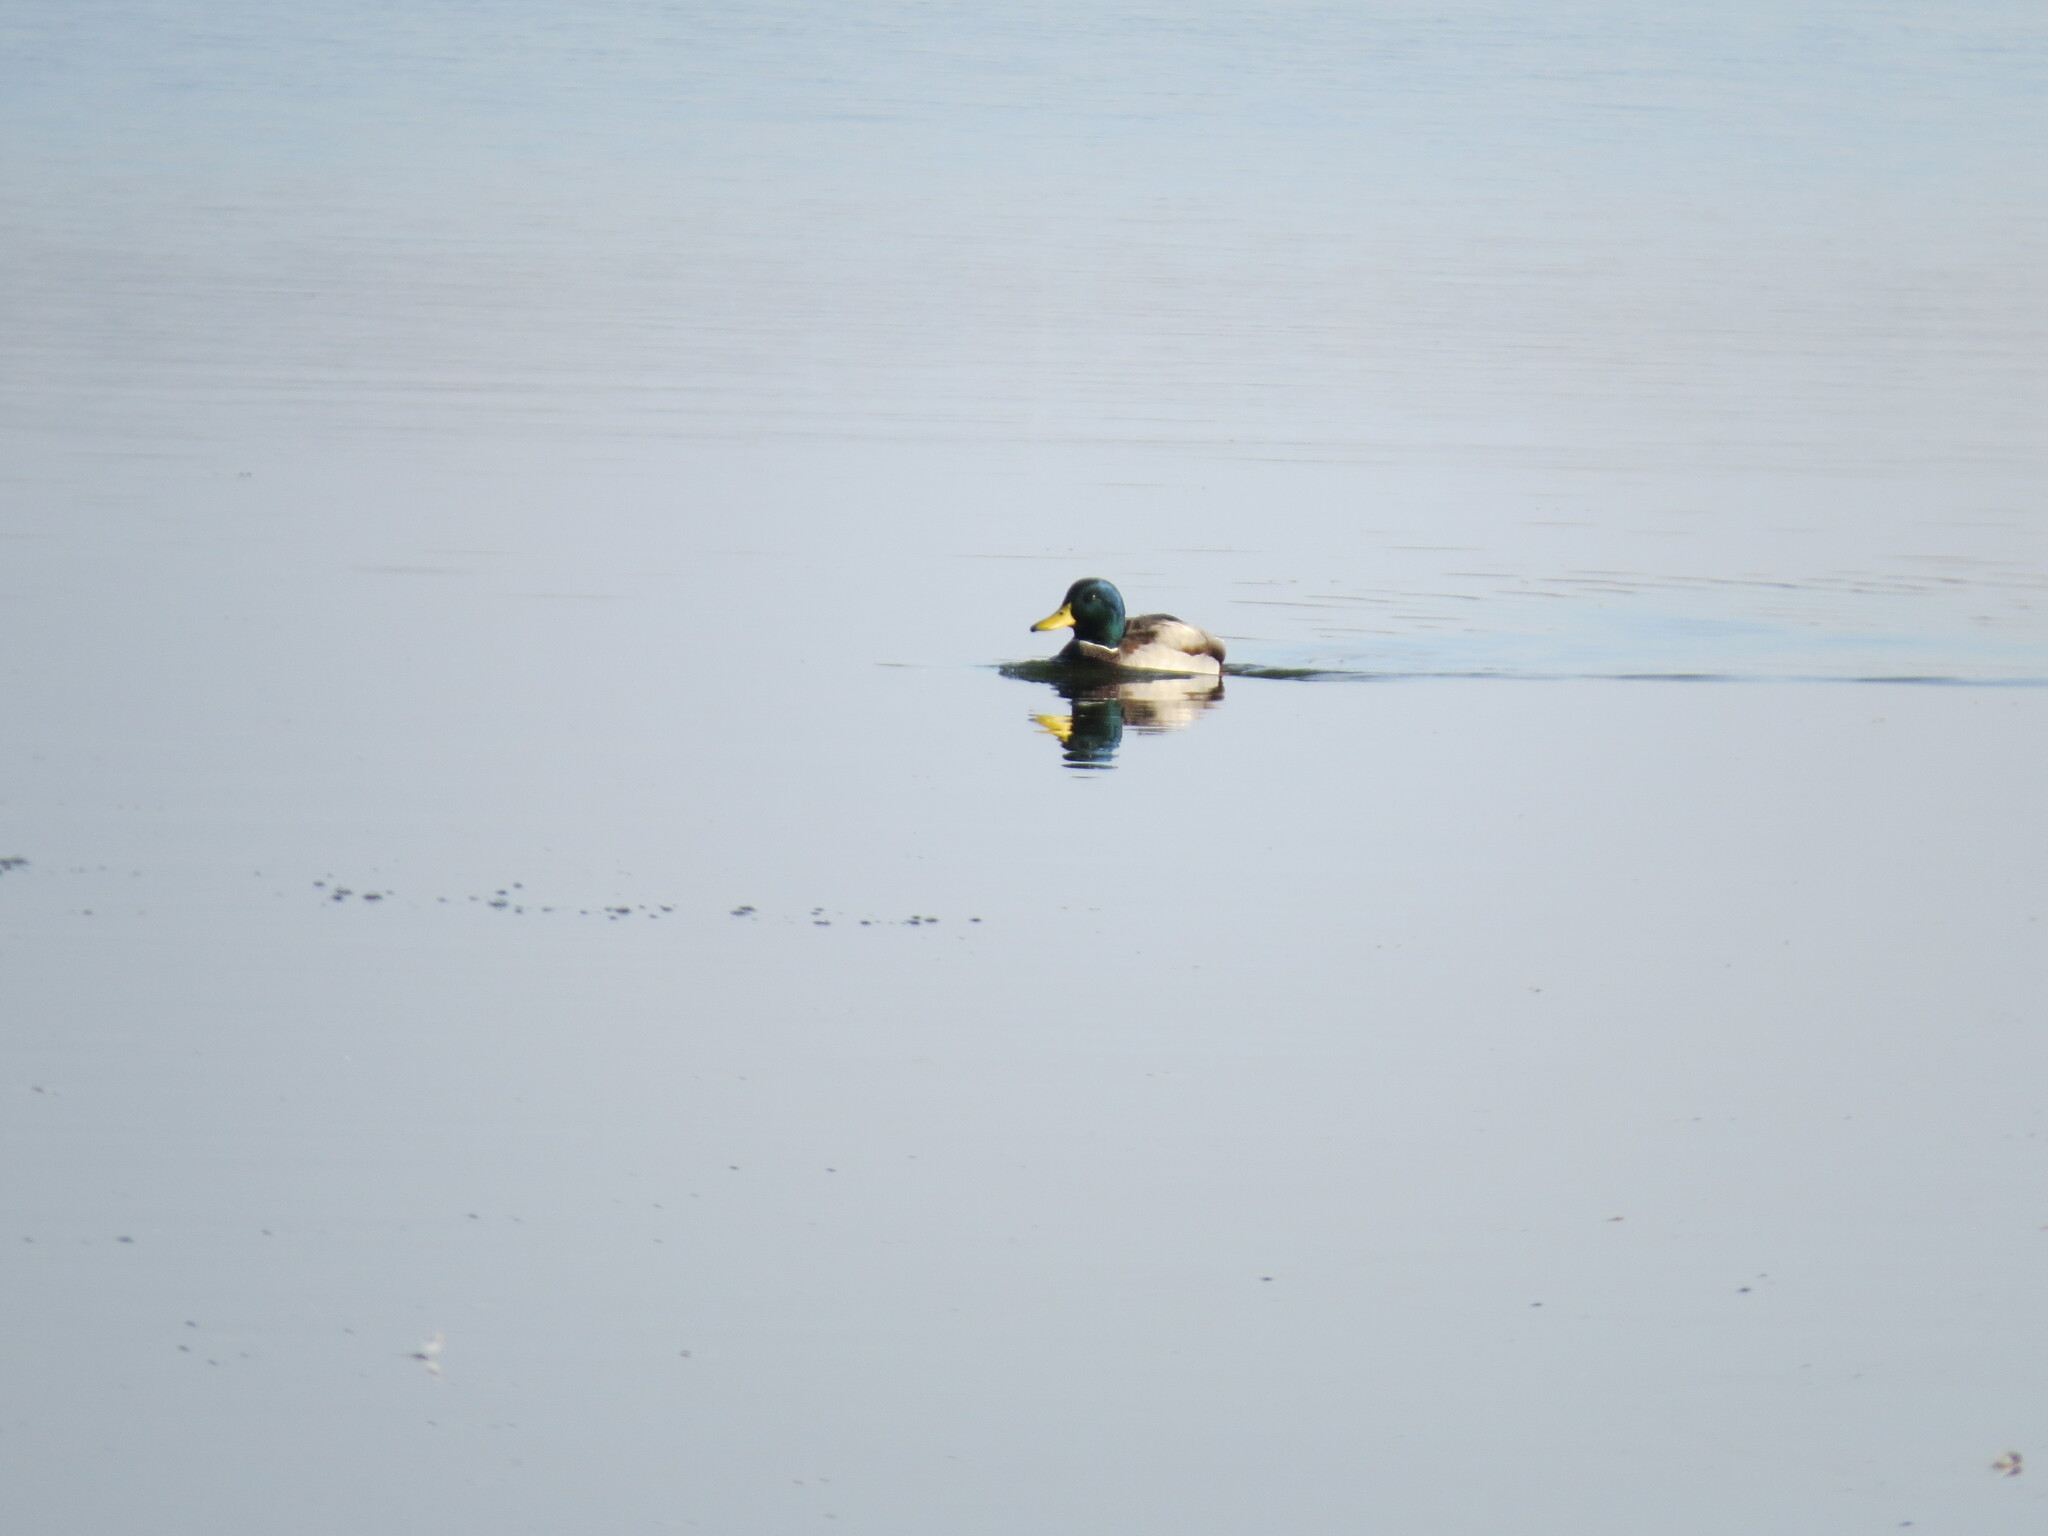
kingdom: Animalia
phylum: Chordata
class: Aves
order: Anseriformes
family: Anatidae
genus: Anas
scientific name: Anas platyrhynchos
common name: Mallard
